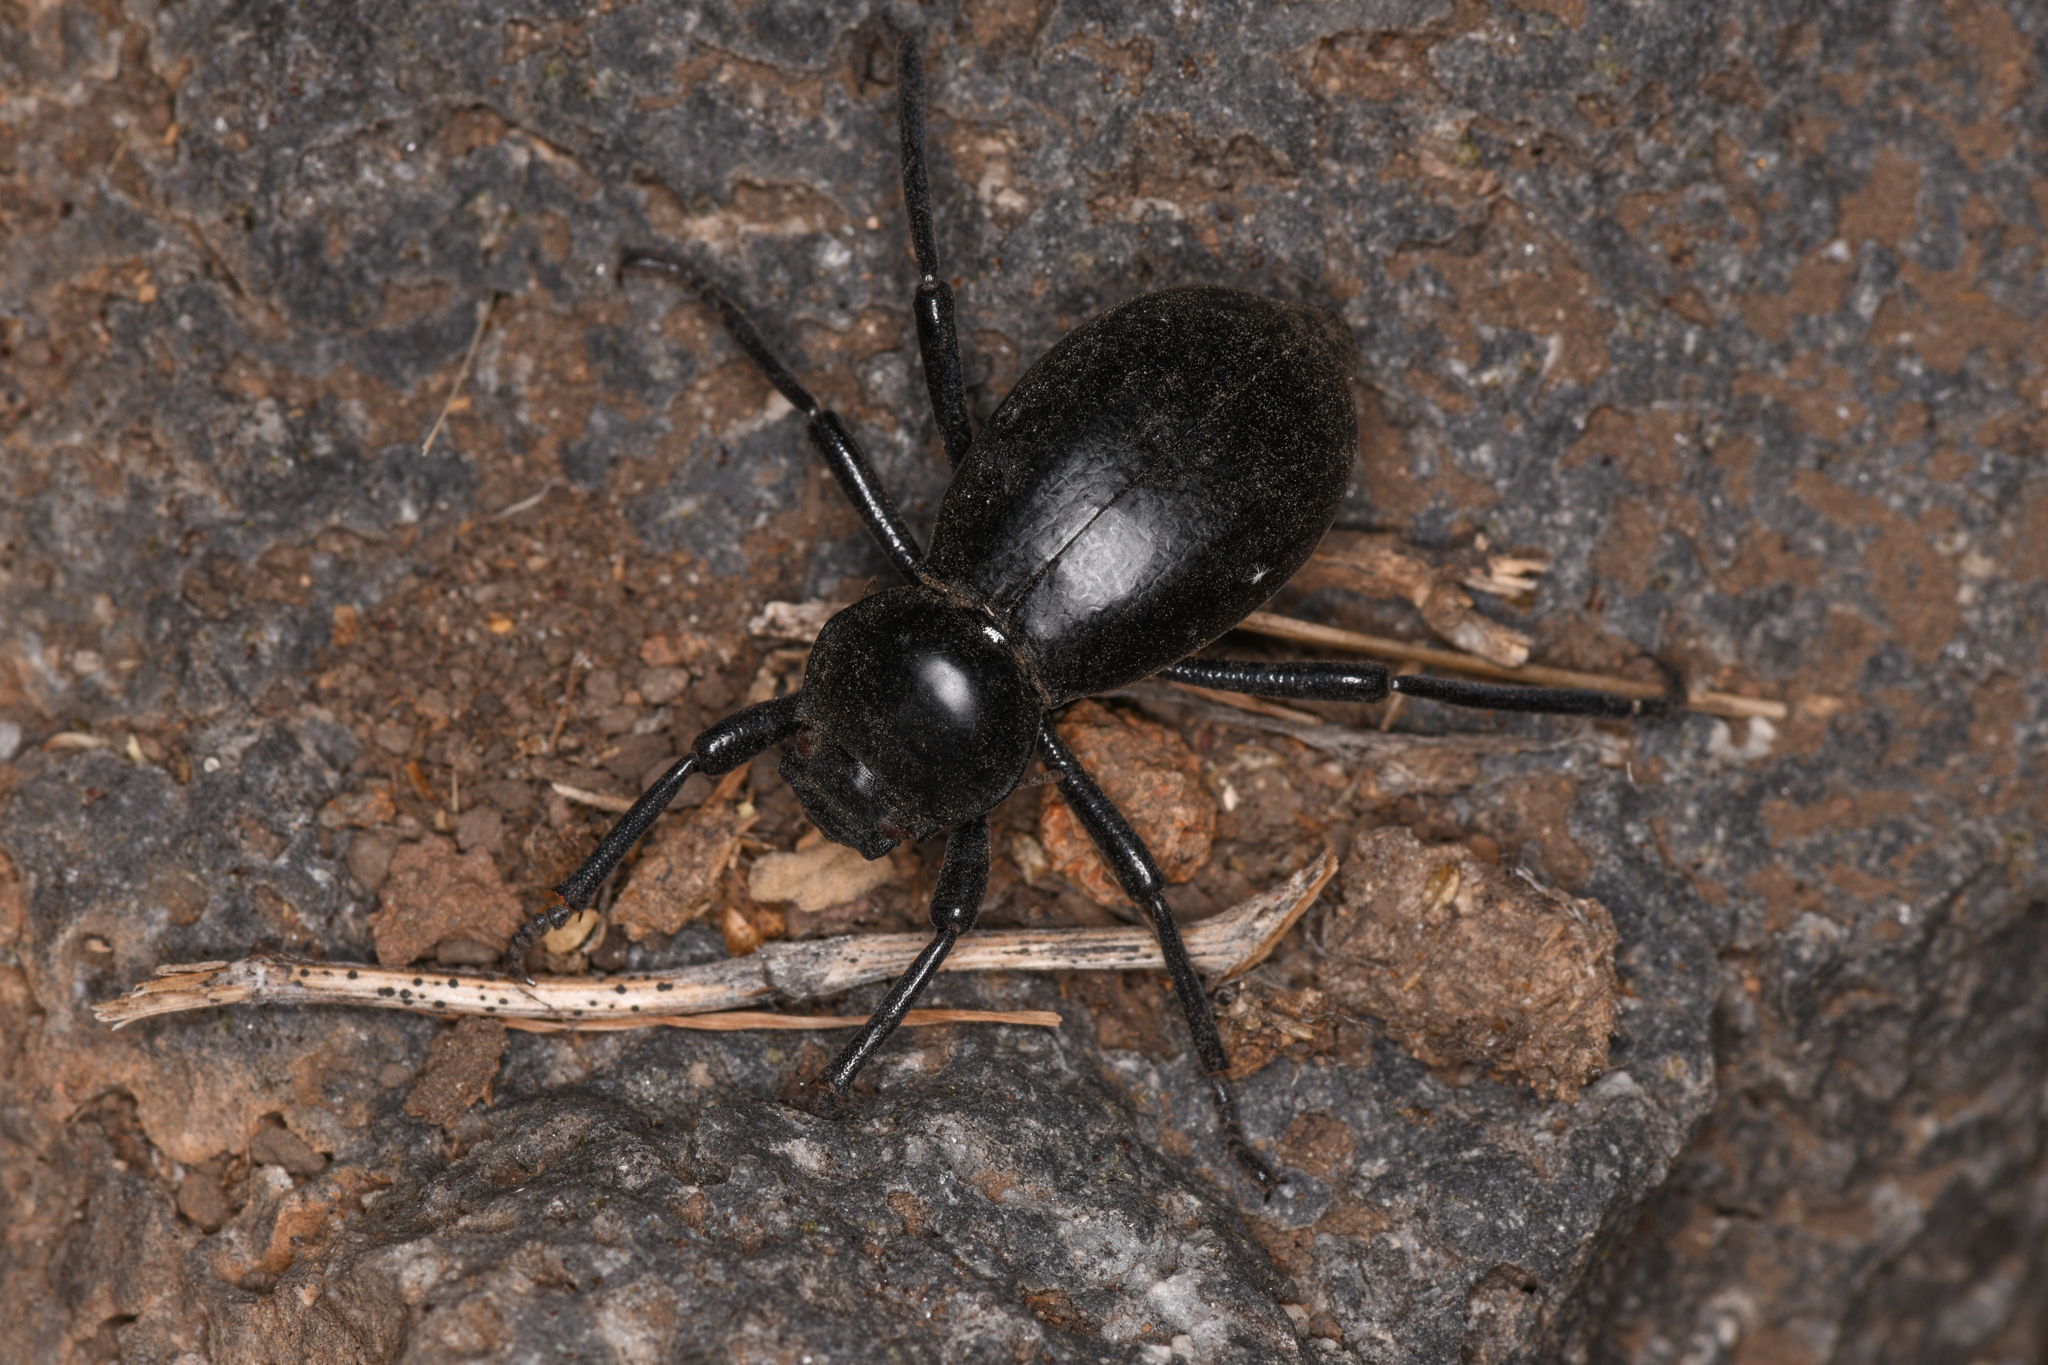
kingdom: Animalia
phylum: Arthropoda
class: Insecta
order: Coleoptera
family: Tenebrionidae
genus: Stenomorpha
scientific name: Stenomorpha cressoni
